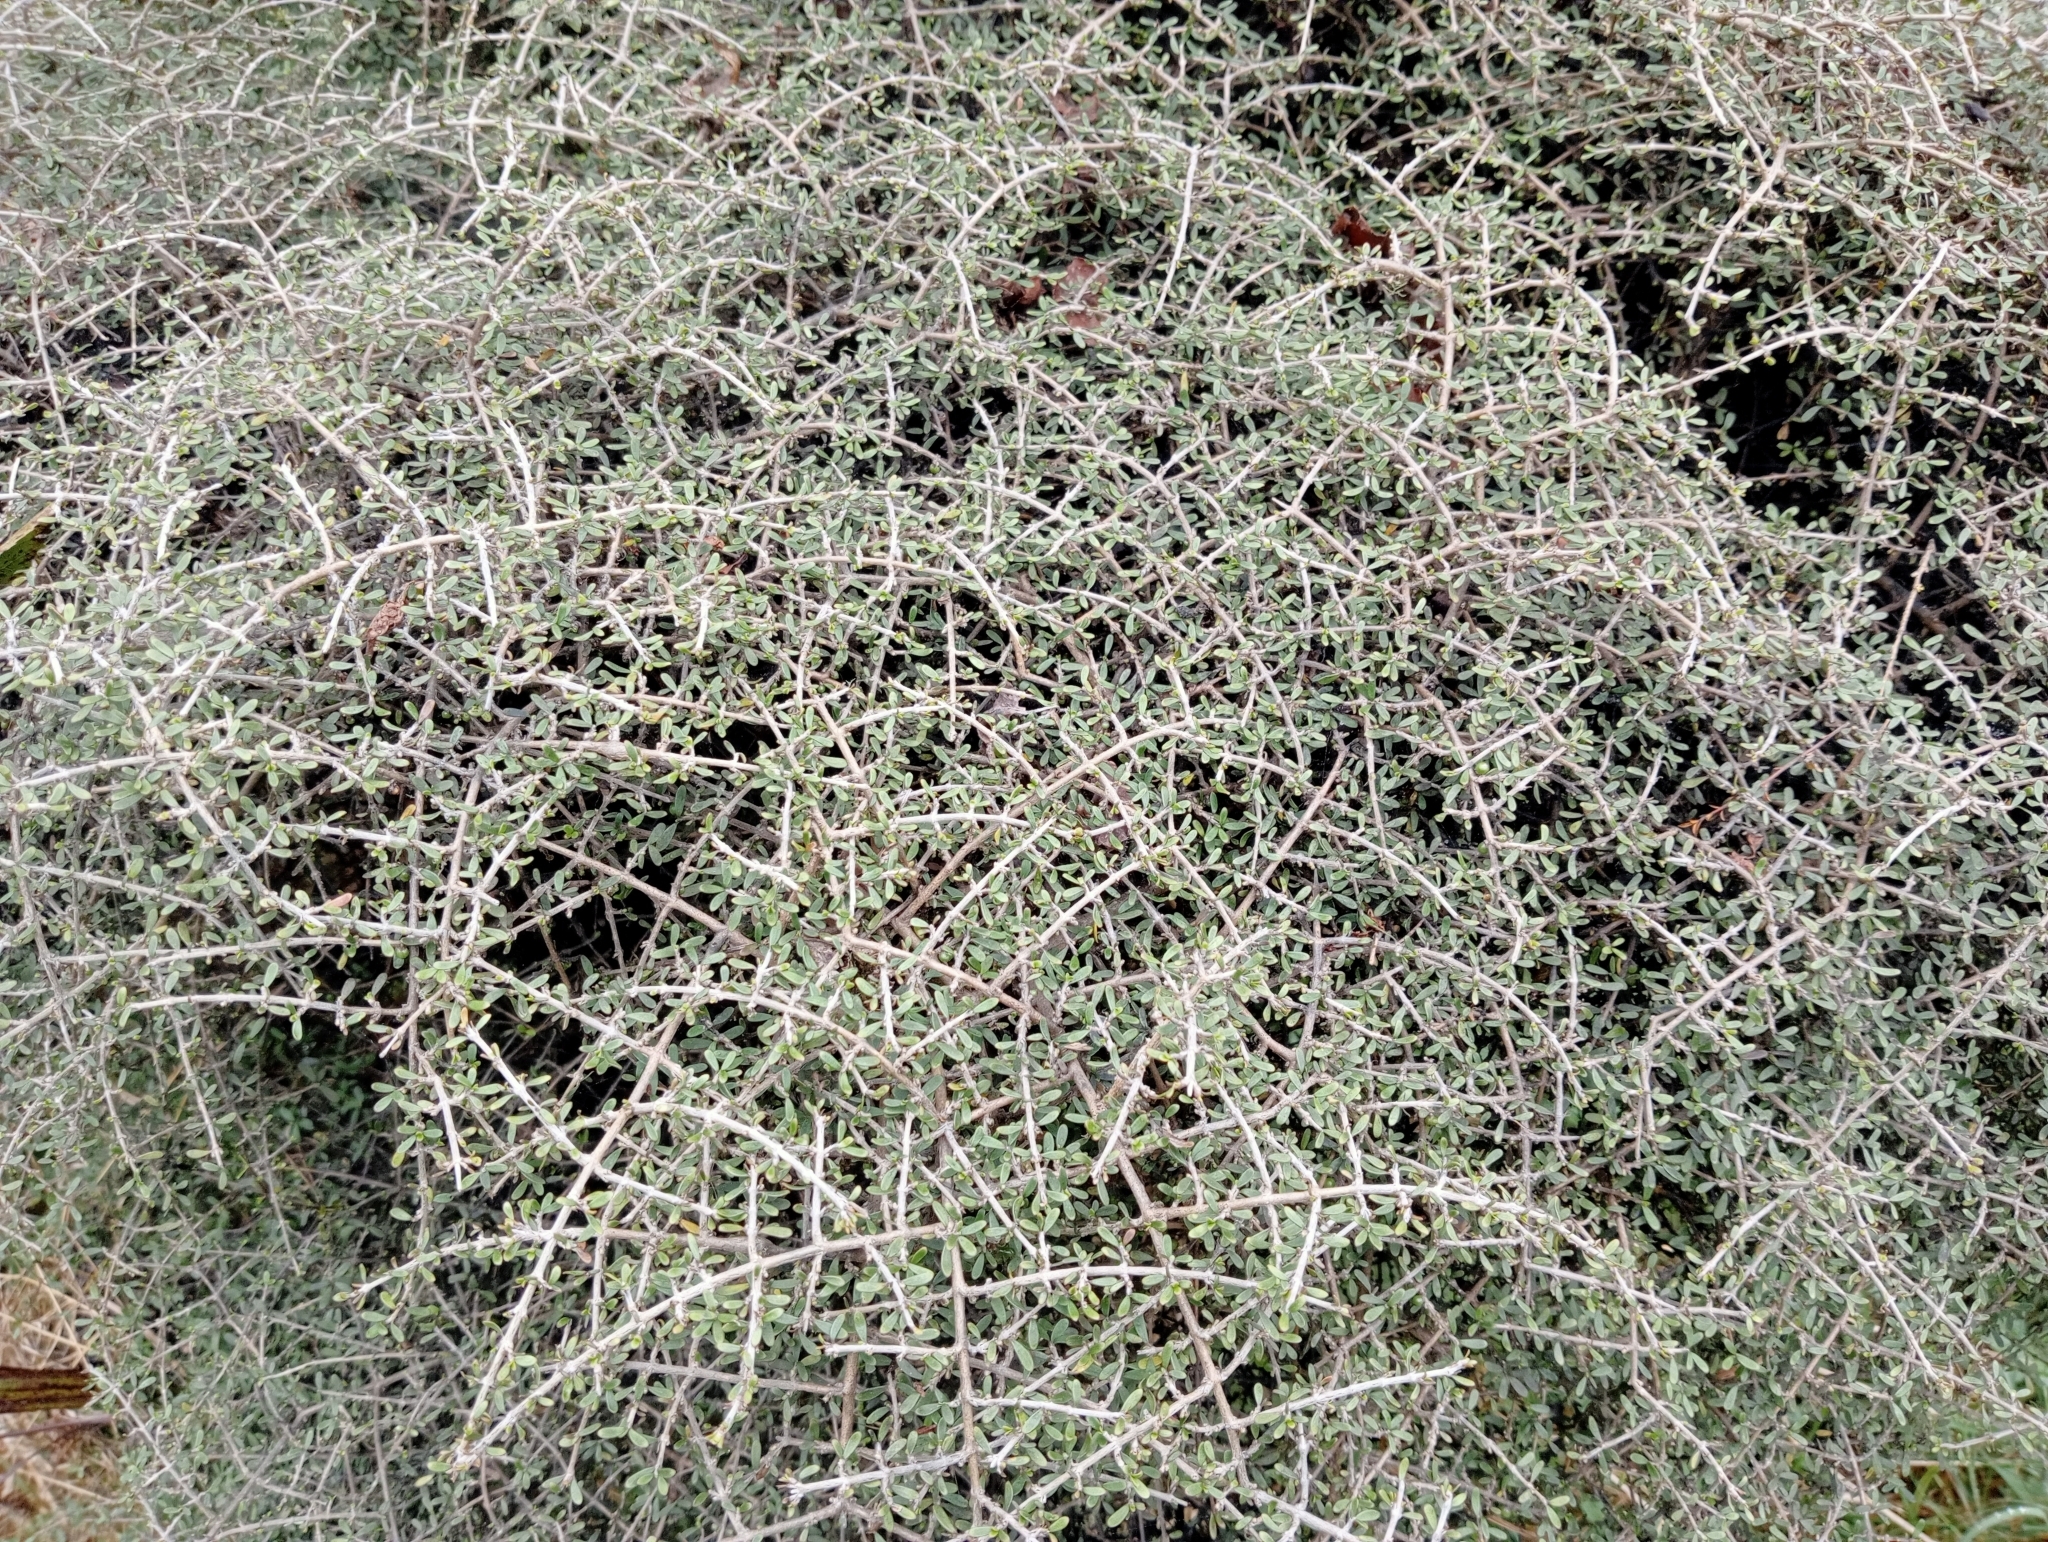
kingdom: Plantae
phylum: Tracheophyta
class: Magnoliopsida
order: Gentianales
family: Rubiaceae
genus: Coprosma
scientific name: Coprosma dumosa
